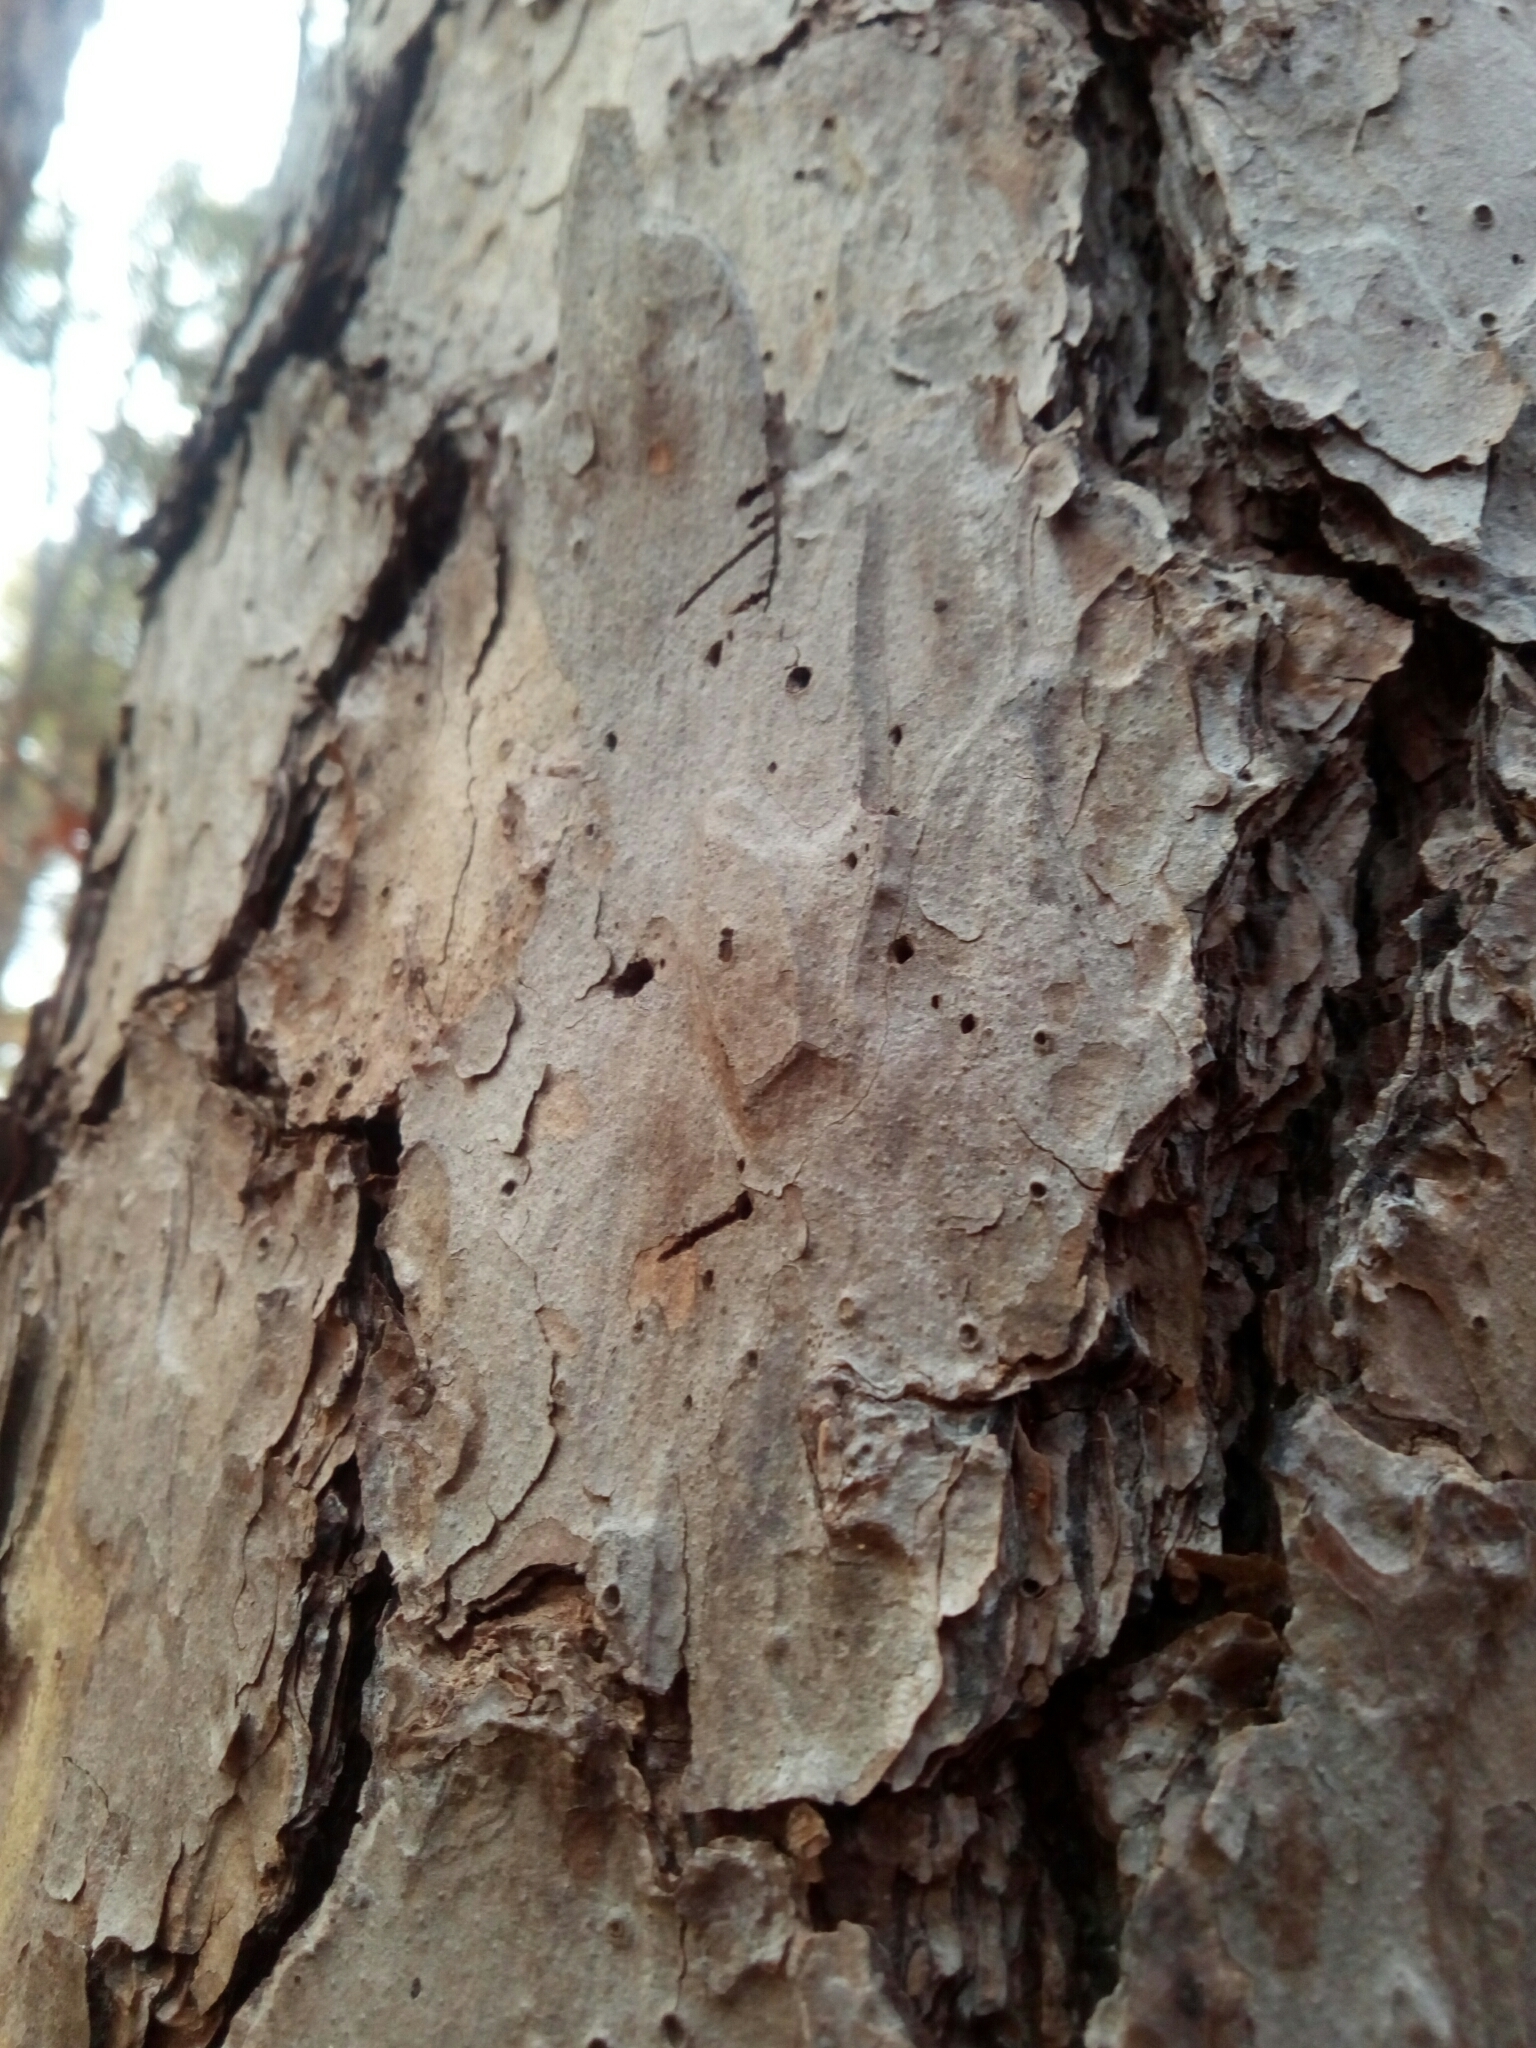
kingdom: Plantae
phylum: Tracheophyta
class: Pinopsida
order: Pinales
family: Pinaceae
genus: Pinus
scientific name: Pinus echinata
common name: Shortleaf pine
